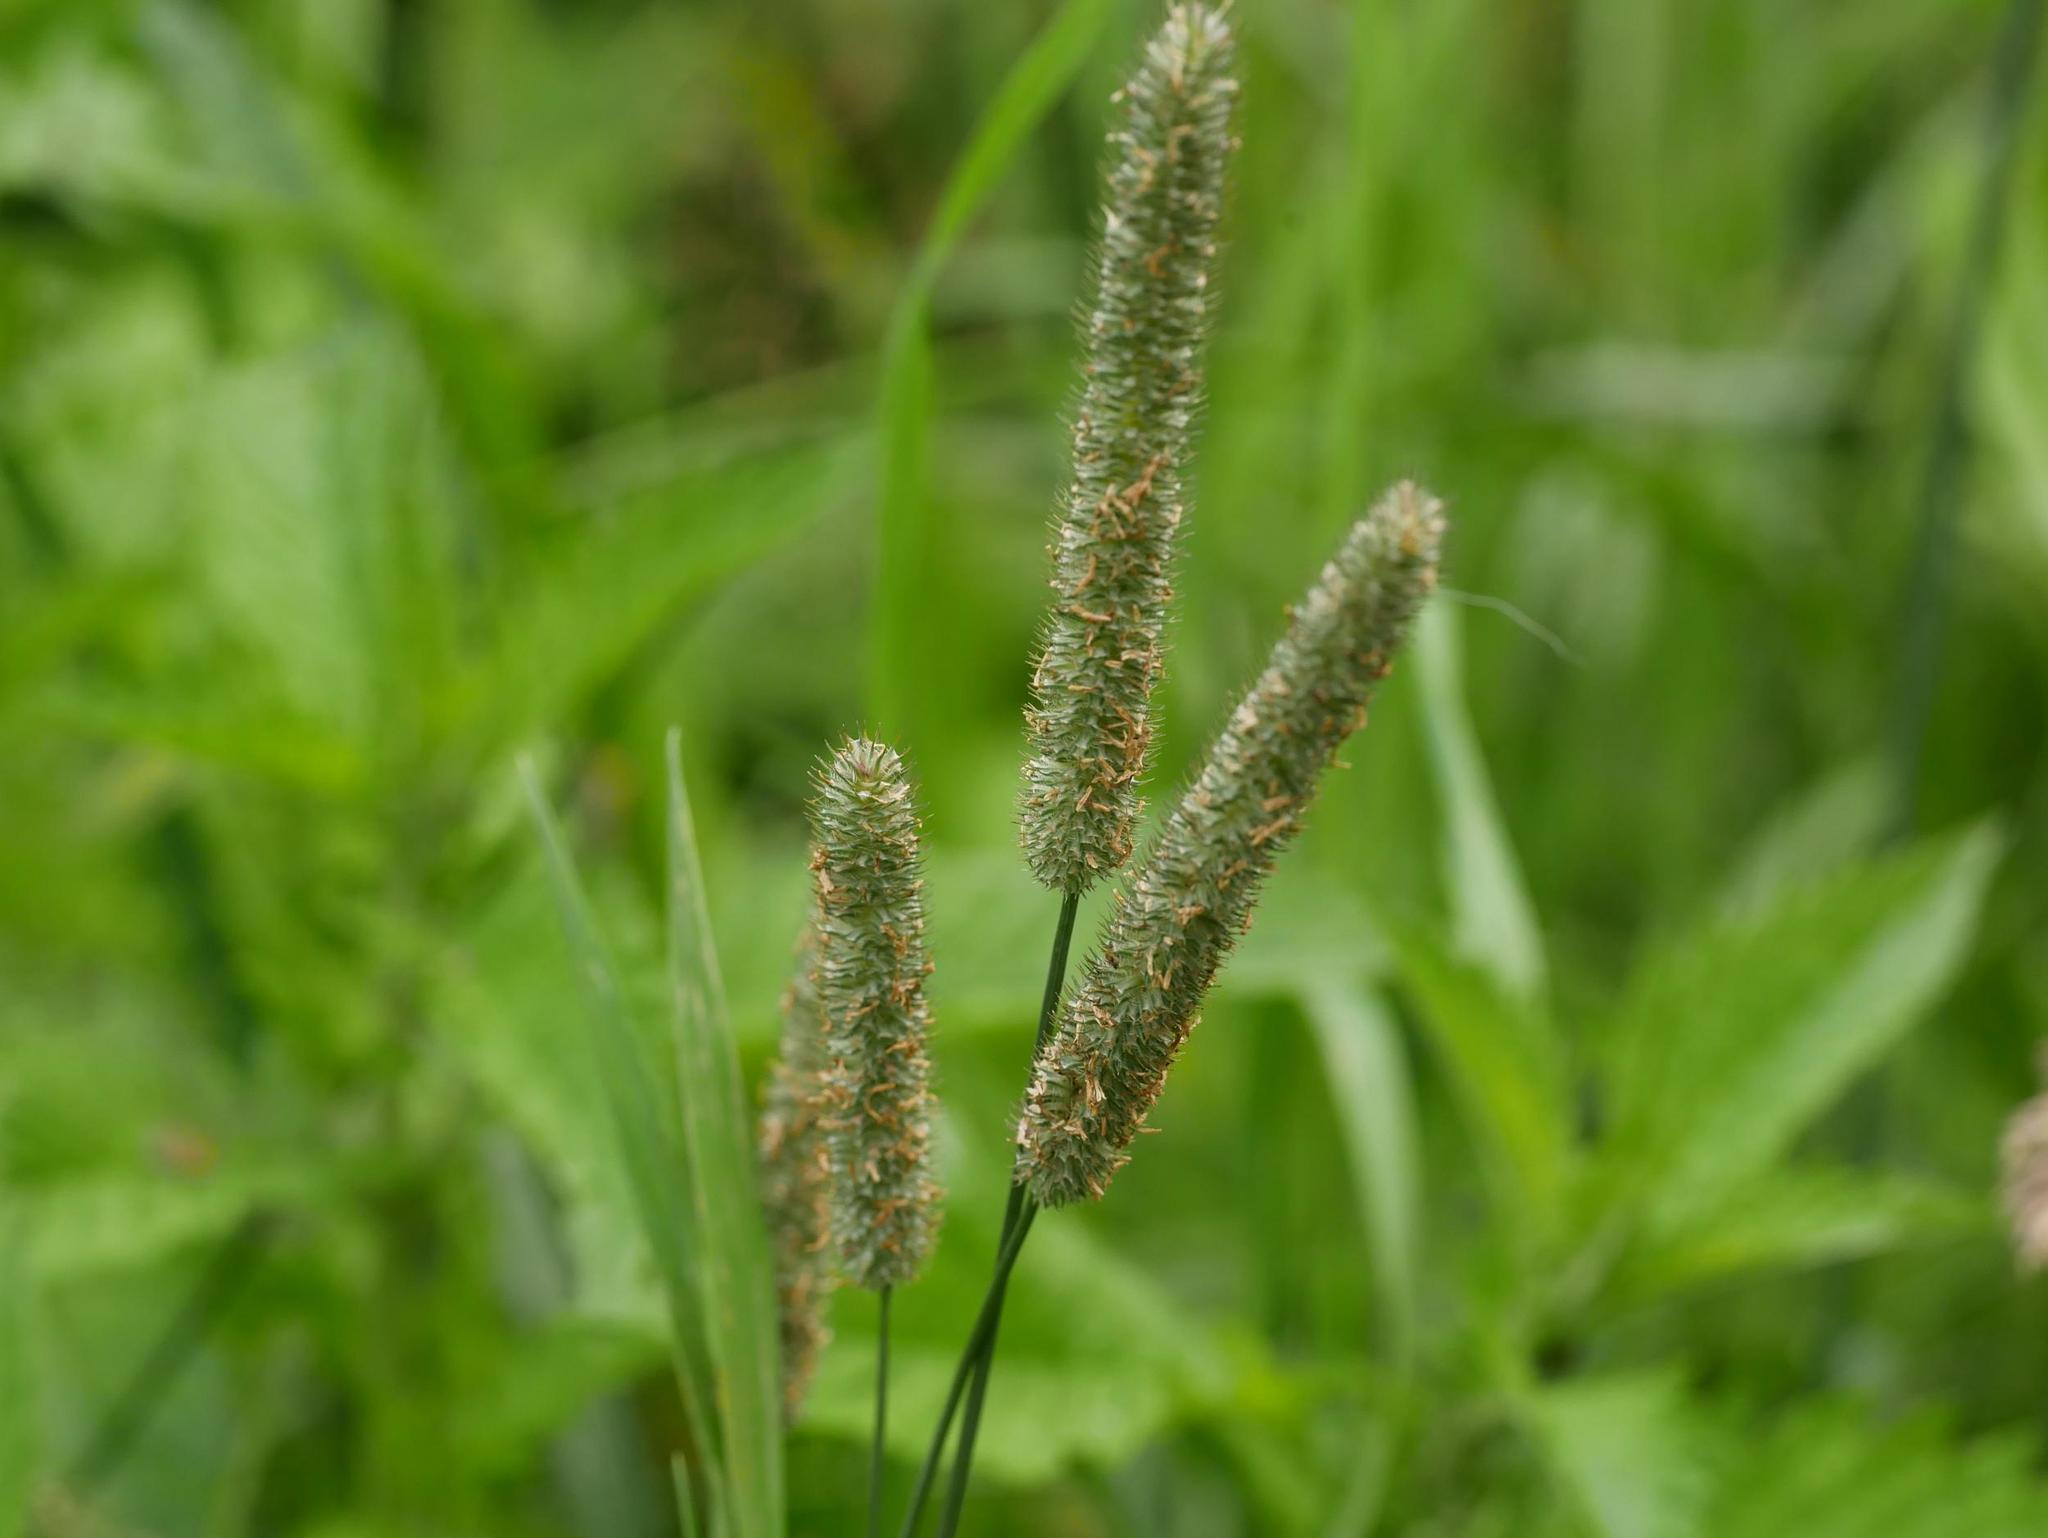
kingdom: Plantae
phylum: Tracheophyta
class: Liliopsida
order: Poales
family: Poaceae
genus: Phleum
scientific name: Phleum pratense
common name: Timothy grass
